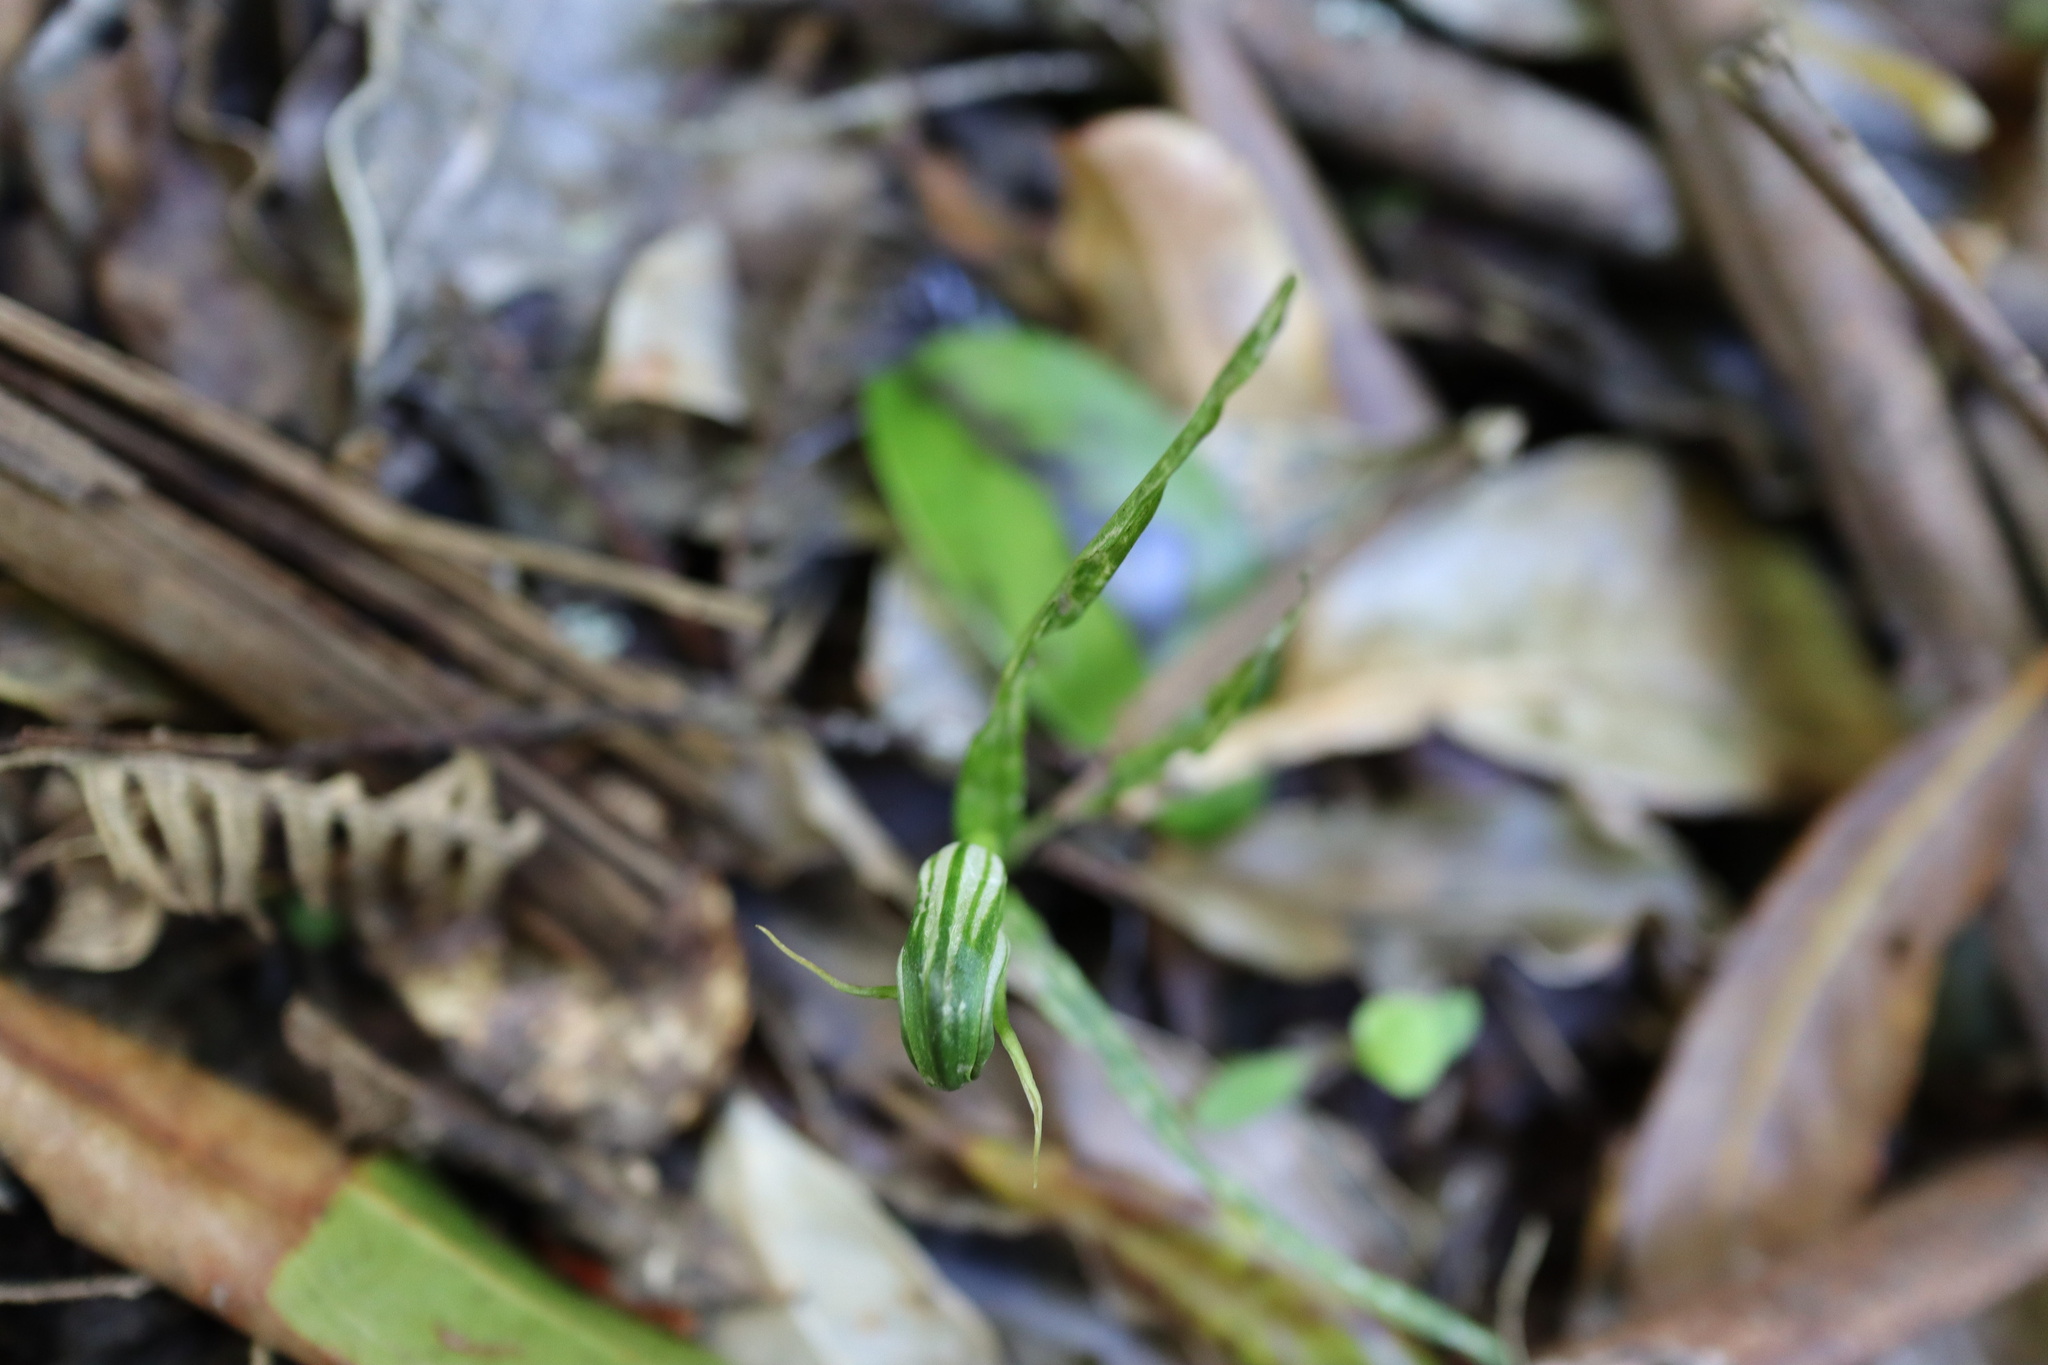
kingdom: Plantae
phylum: Tracheophyta
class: Liliopsida
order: Asparagales
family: Orchidaceae
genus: Pterostylis
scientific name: Pterostylis graminea
